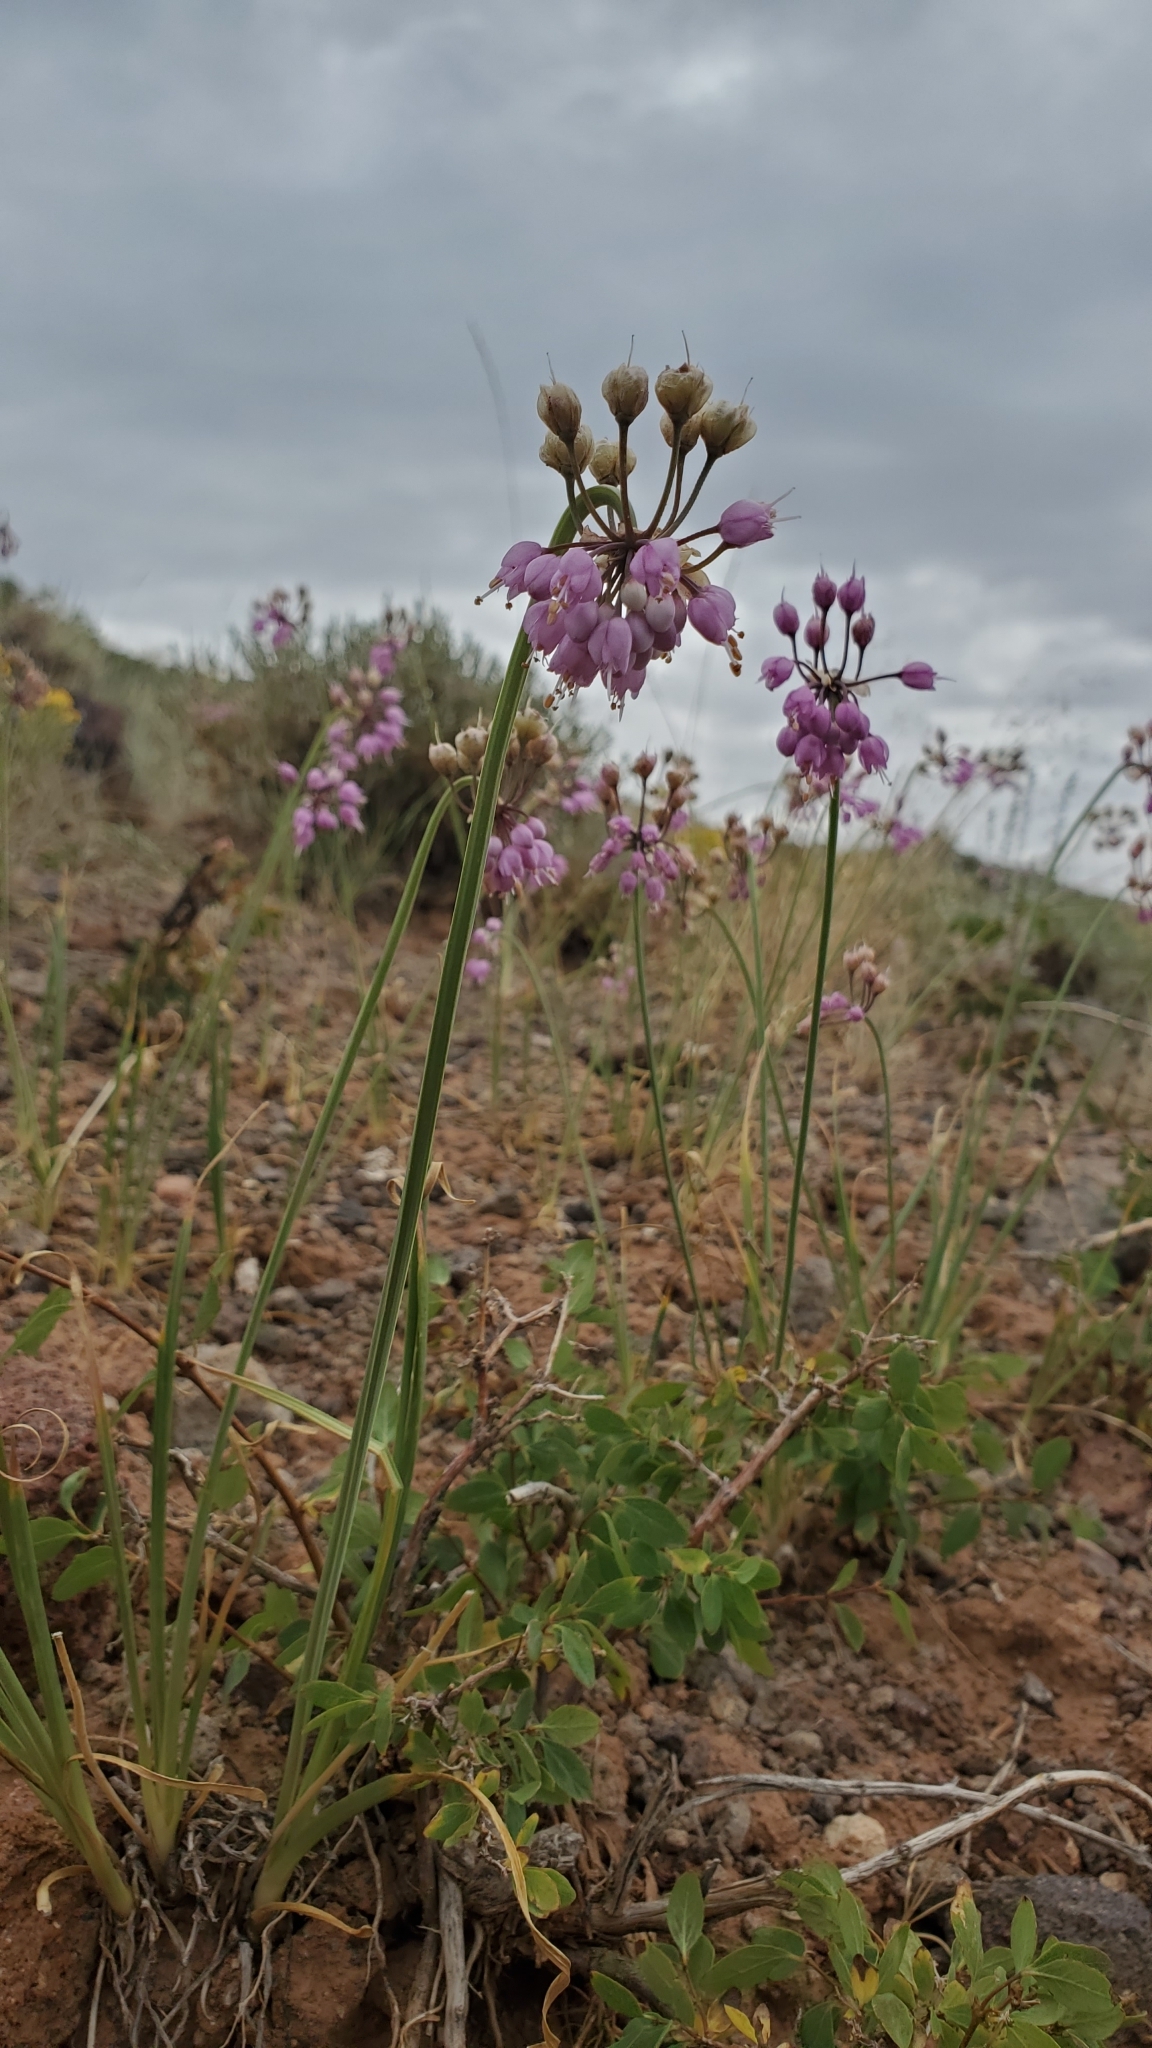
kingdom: Plantae
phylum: Tracheophyta
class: Liliopsida
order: Asparagales
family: Amaryllidaceae
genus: Allium
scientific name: Allium cernuum
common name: Nodding onion
